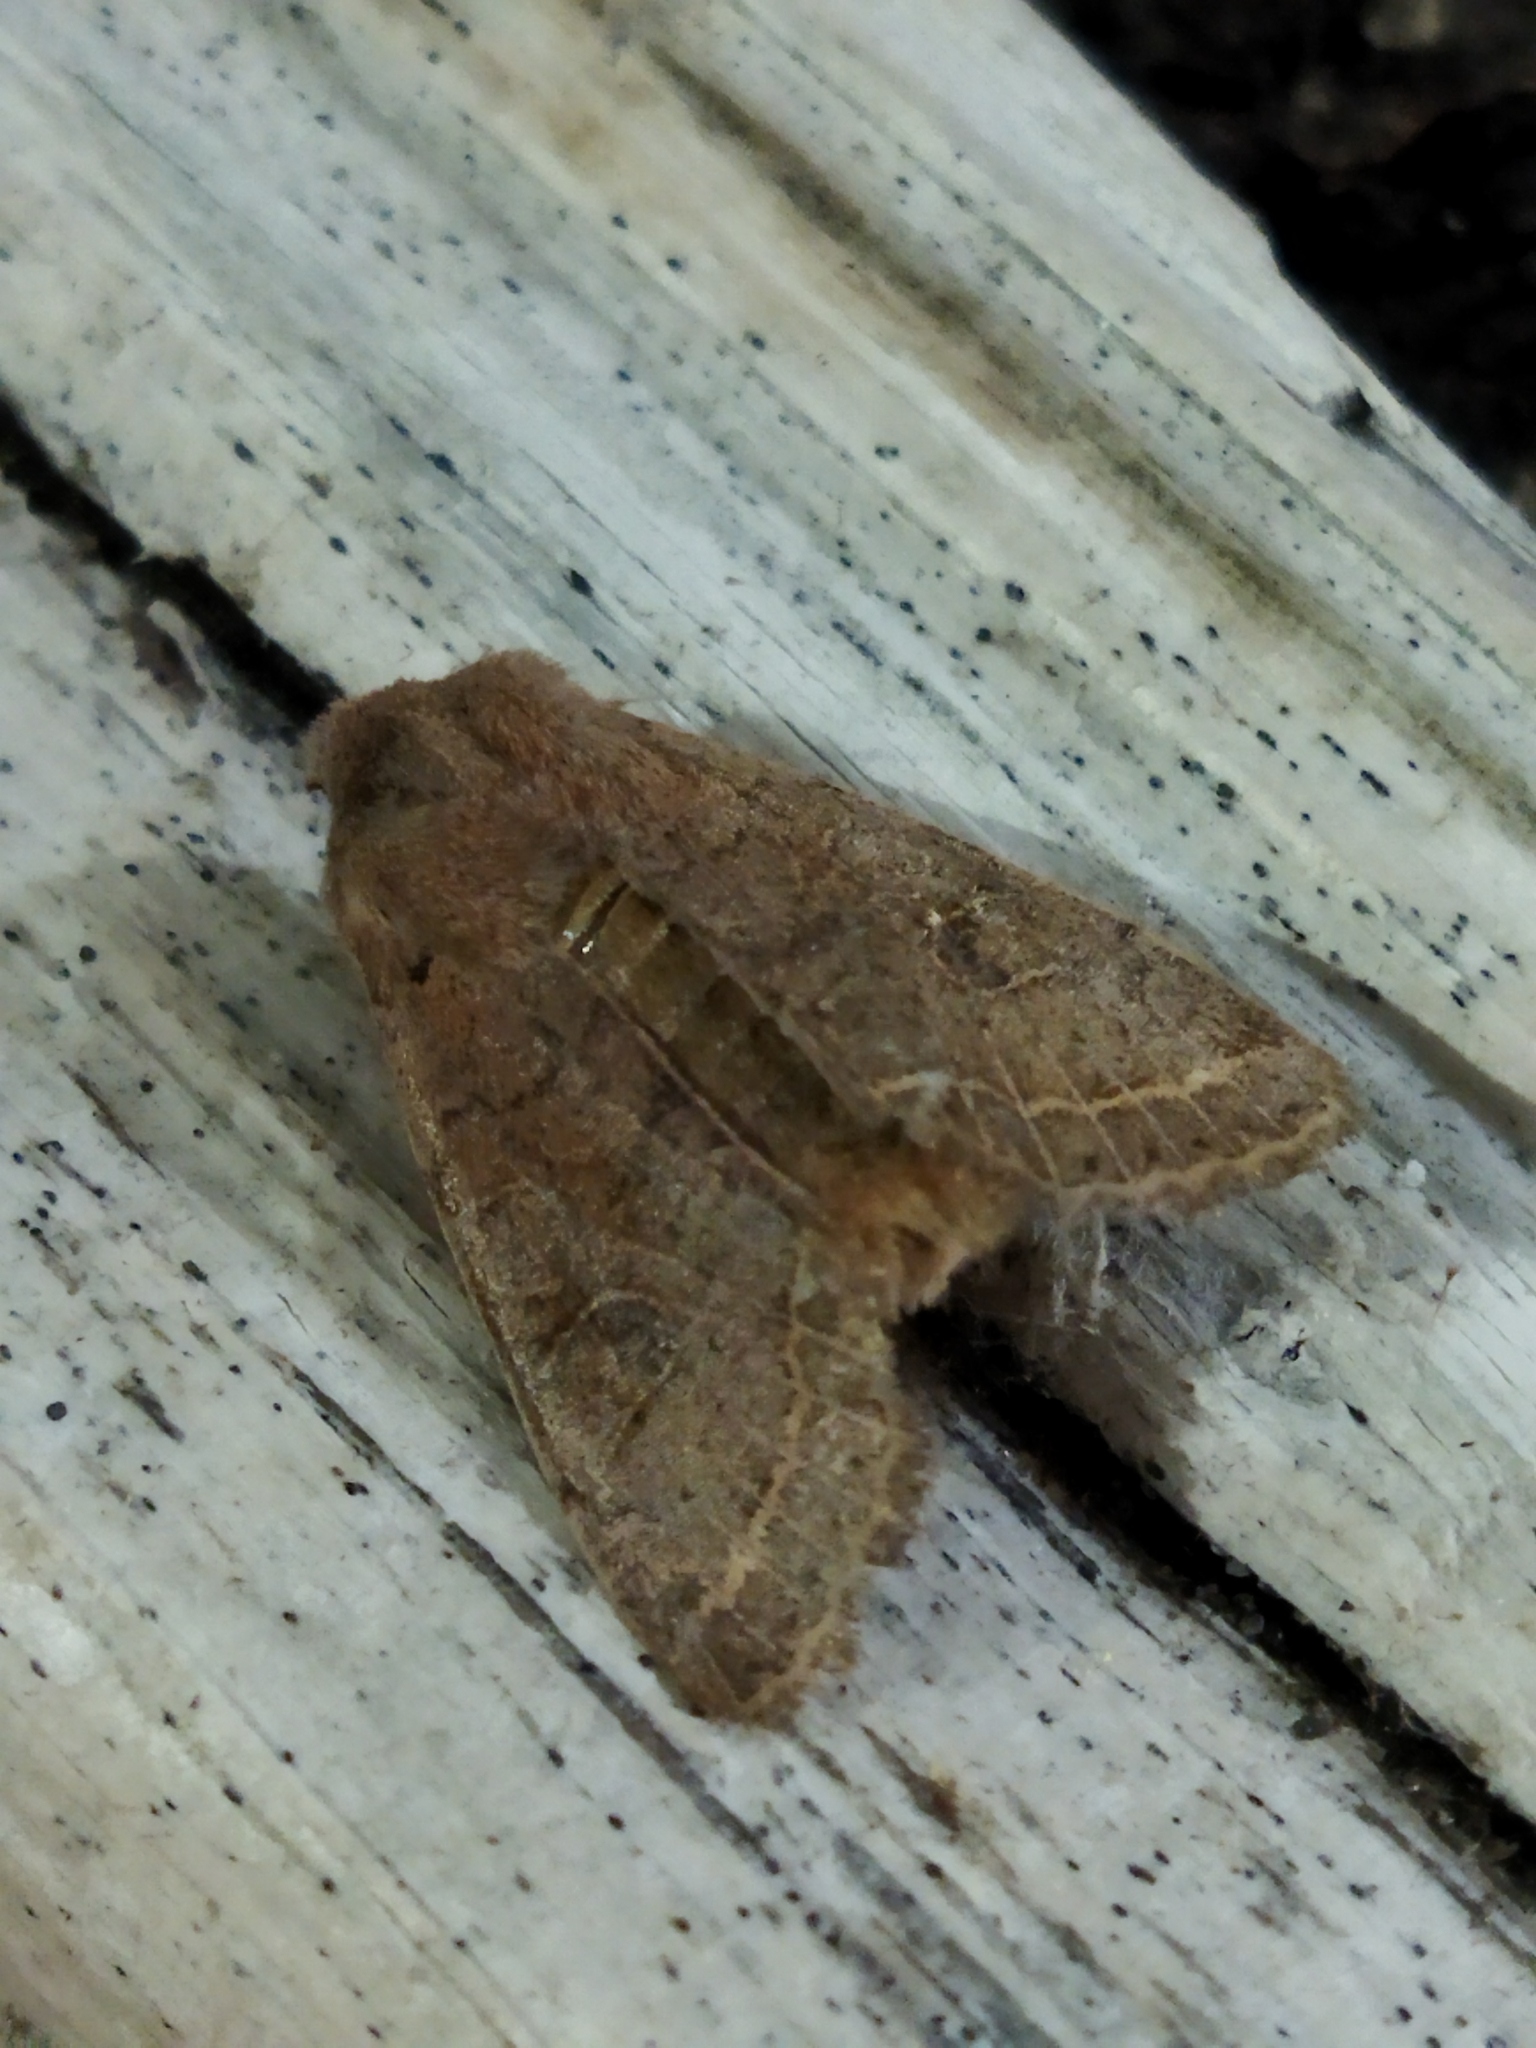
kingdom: Animalia
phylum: Arthropoda
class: Insecta
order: Lepidoptera
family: Noctuidae
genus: Orthosia
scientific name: Orthosia cerasi
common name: Common quaker
